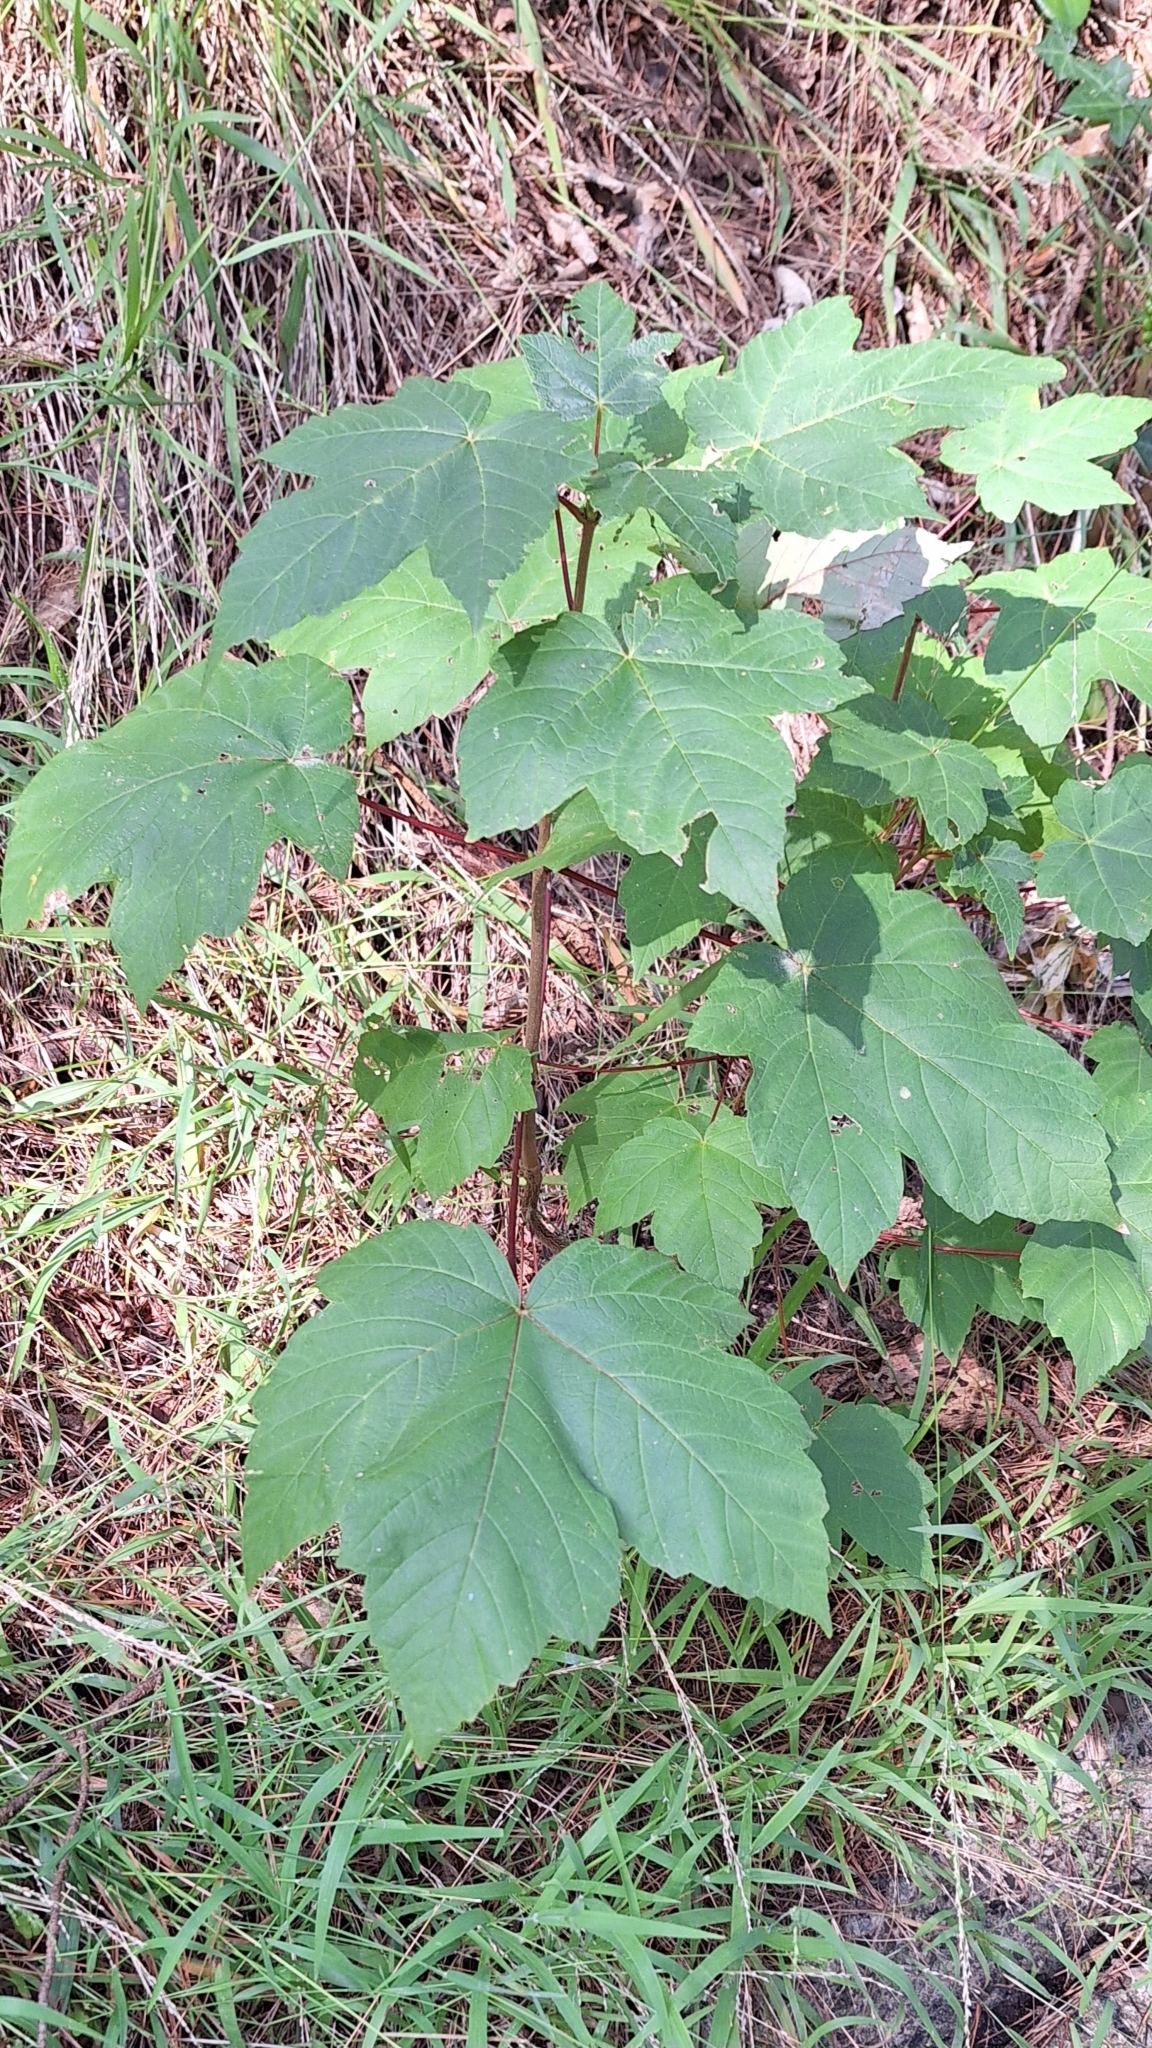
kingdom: Plantae
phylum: Tracheophyta
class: Magnoliopsida
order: Sapindales
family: Sapindaceae
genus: Acer
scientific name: Acer pseudoplatanus
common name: Sycamore
